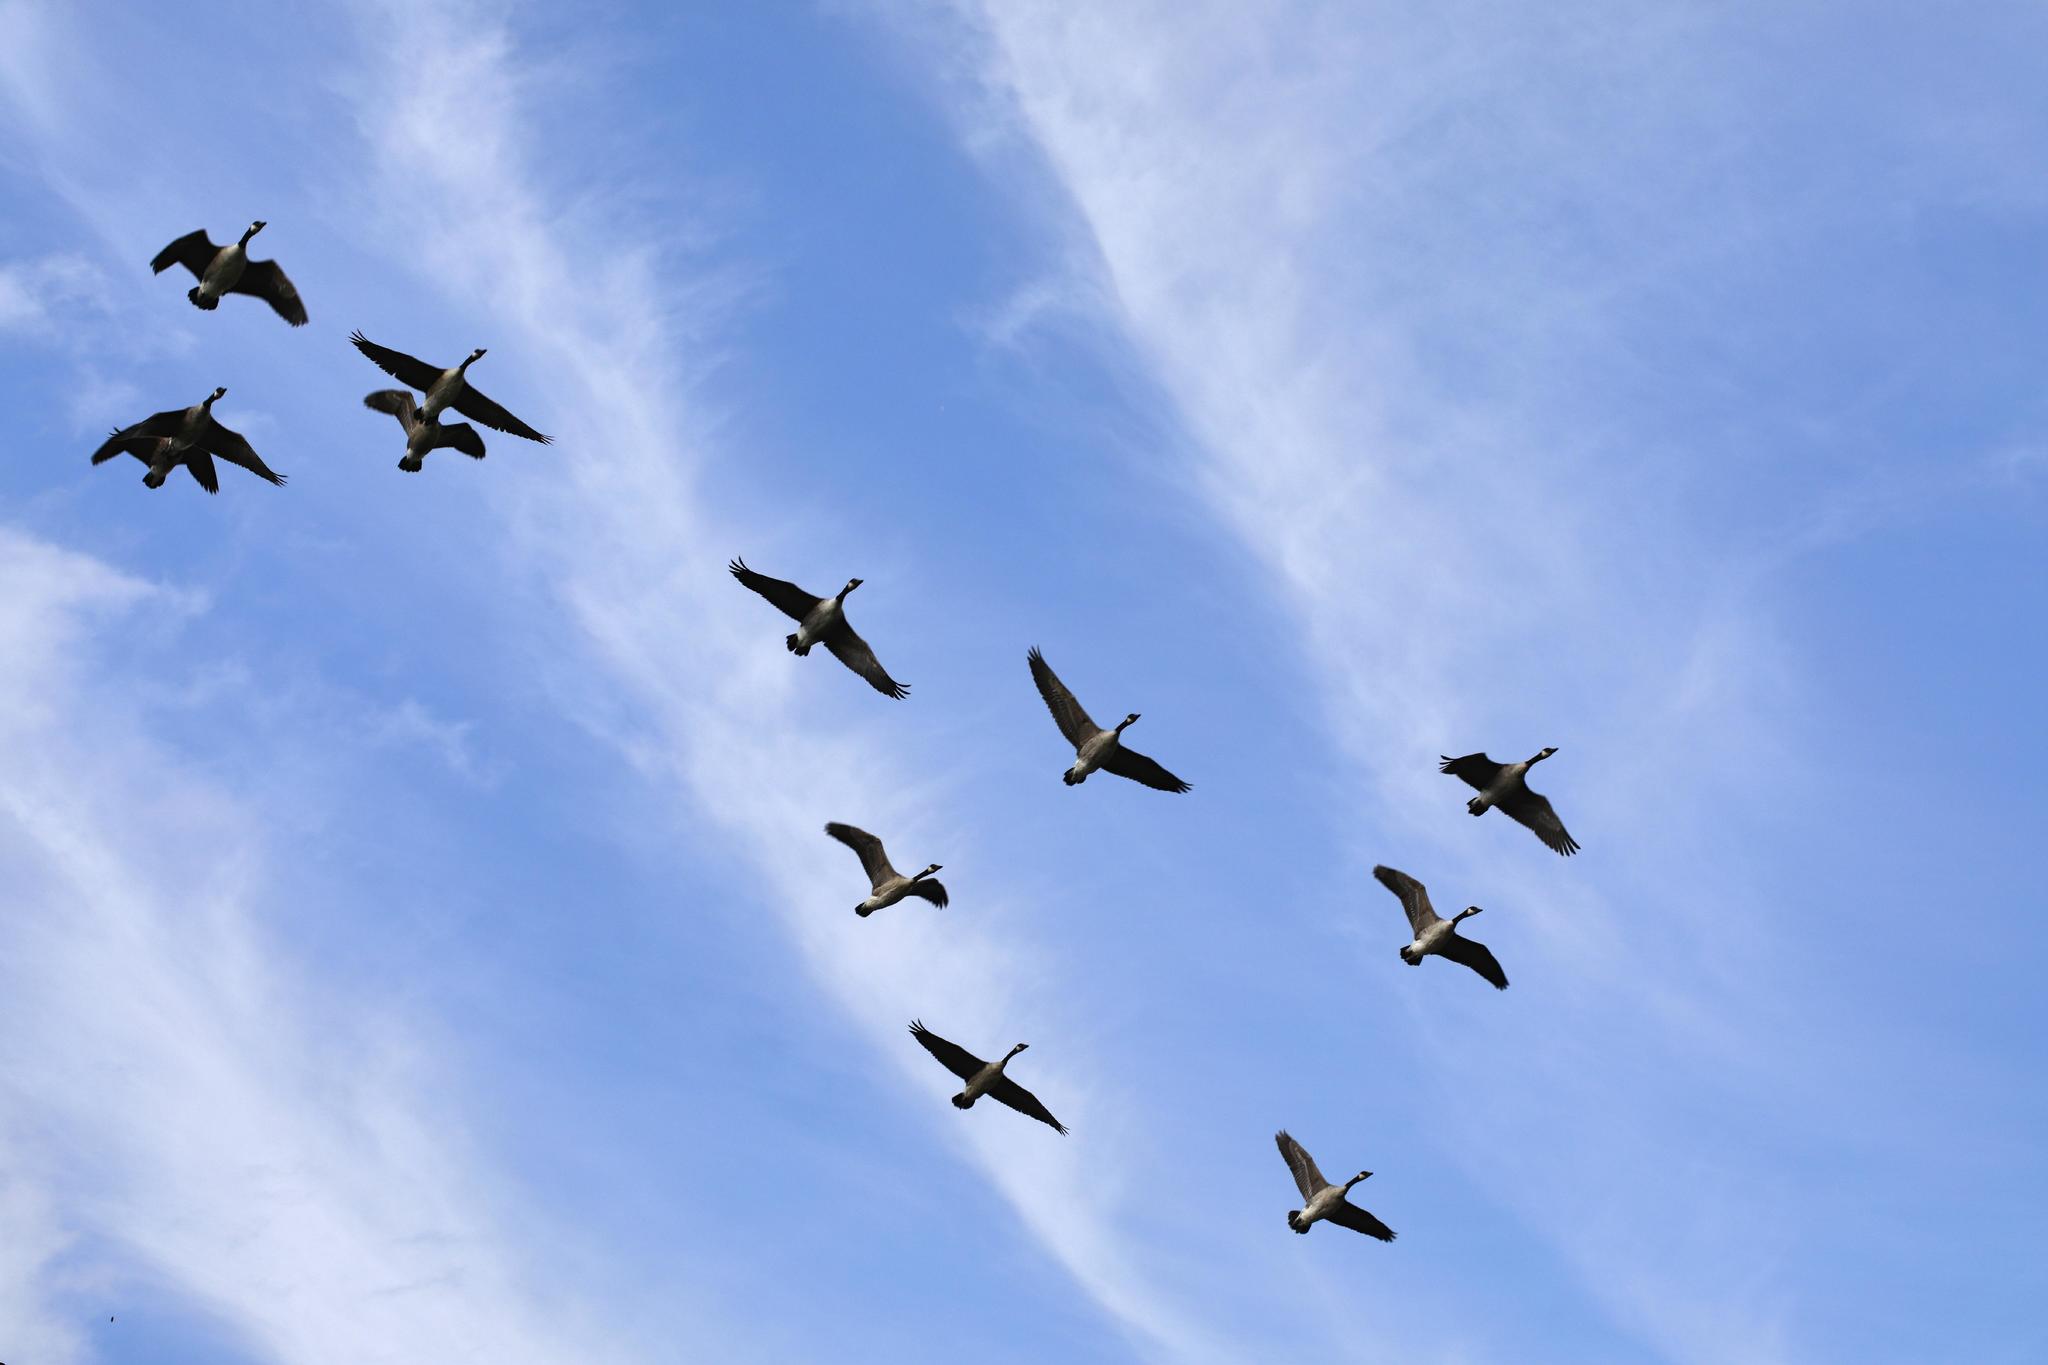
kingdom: Animalia
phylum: Chordata
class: Aves
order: Anseriformes
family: Anatidae
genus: Branta
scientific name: Branta canadensis
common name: Canada goose
